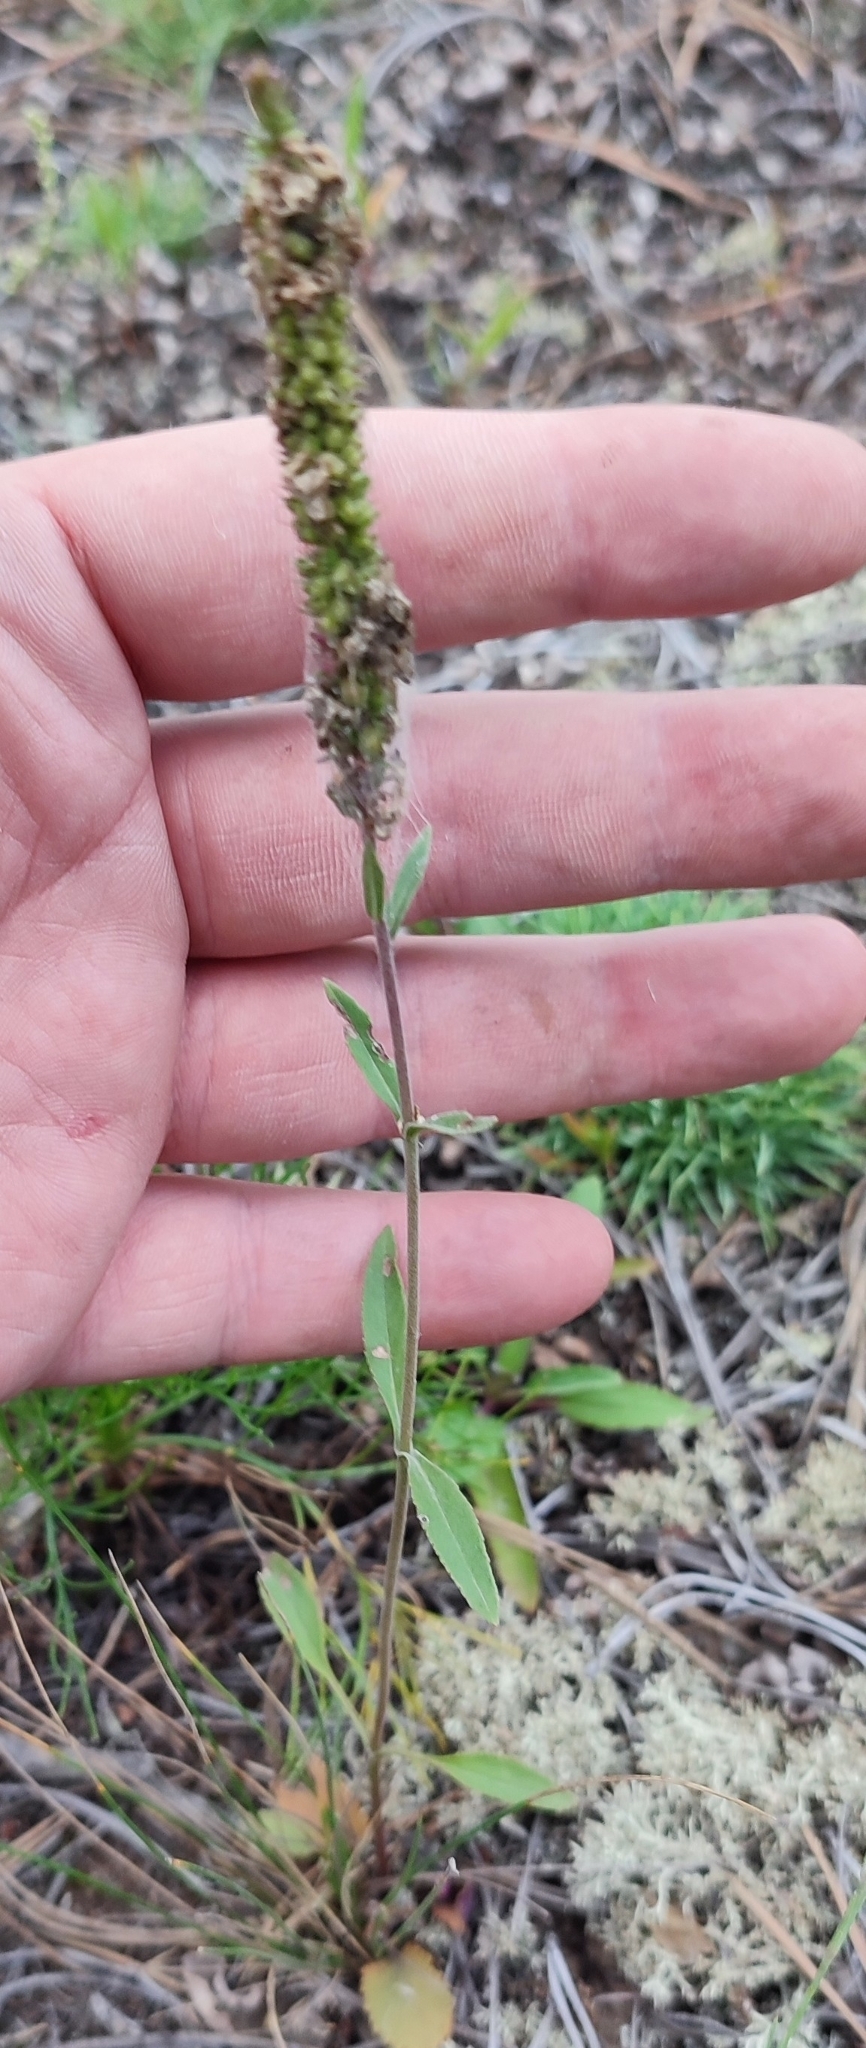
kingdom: Plantae
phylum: Tracheophyta
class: Magnoliopsida
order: Lamiales
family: Plantaginaceae
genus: Veronica
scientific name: Veronica spicata
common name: Spiked speedwell
